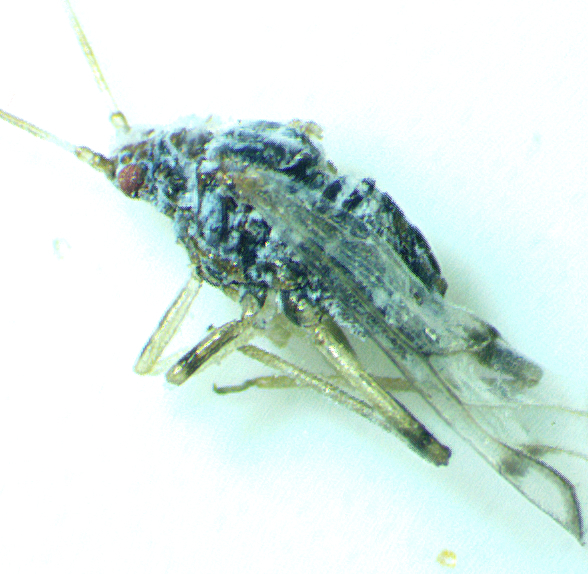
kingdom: Animalia
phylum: Arthropoda
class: Insecta
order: Hemiptera
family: Aphididae
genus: Shivaphis
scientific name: Shivaphis celti
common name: Asian wooly hackberry aphid
